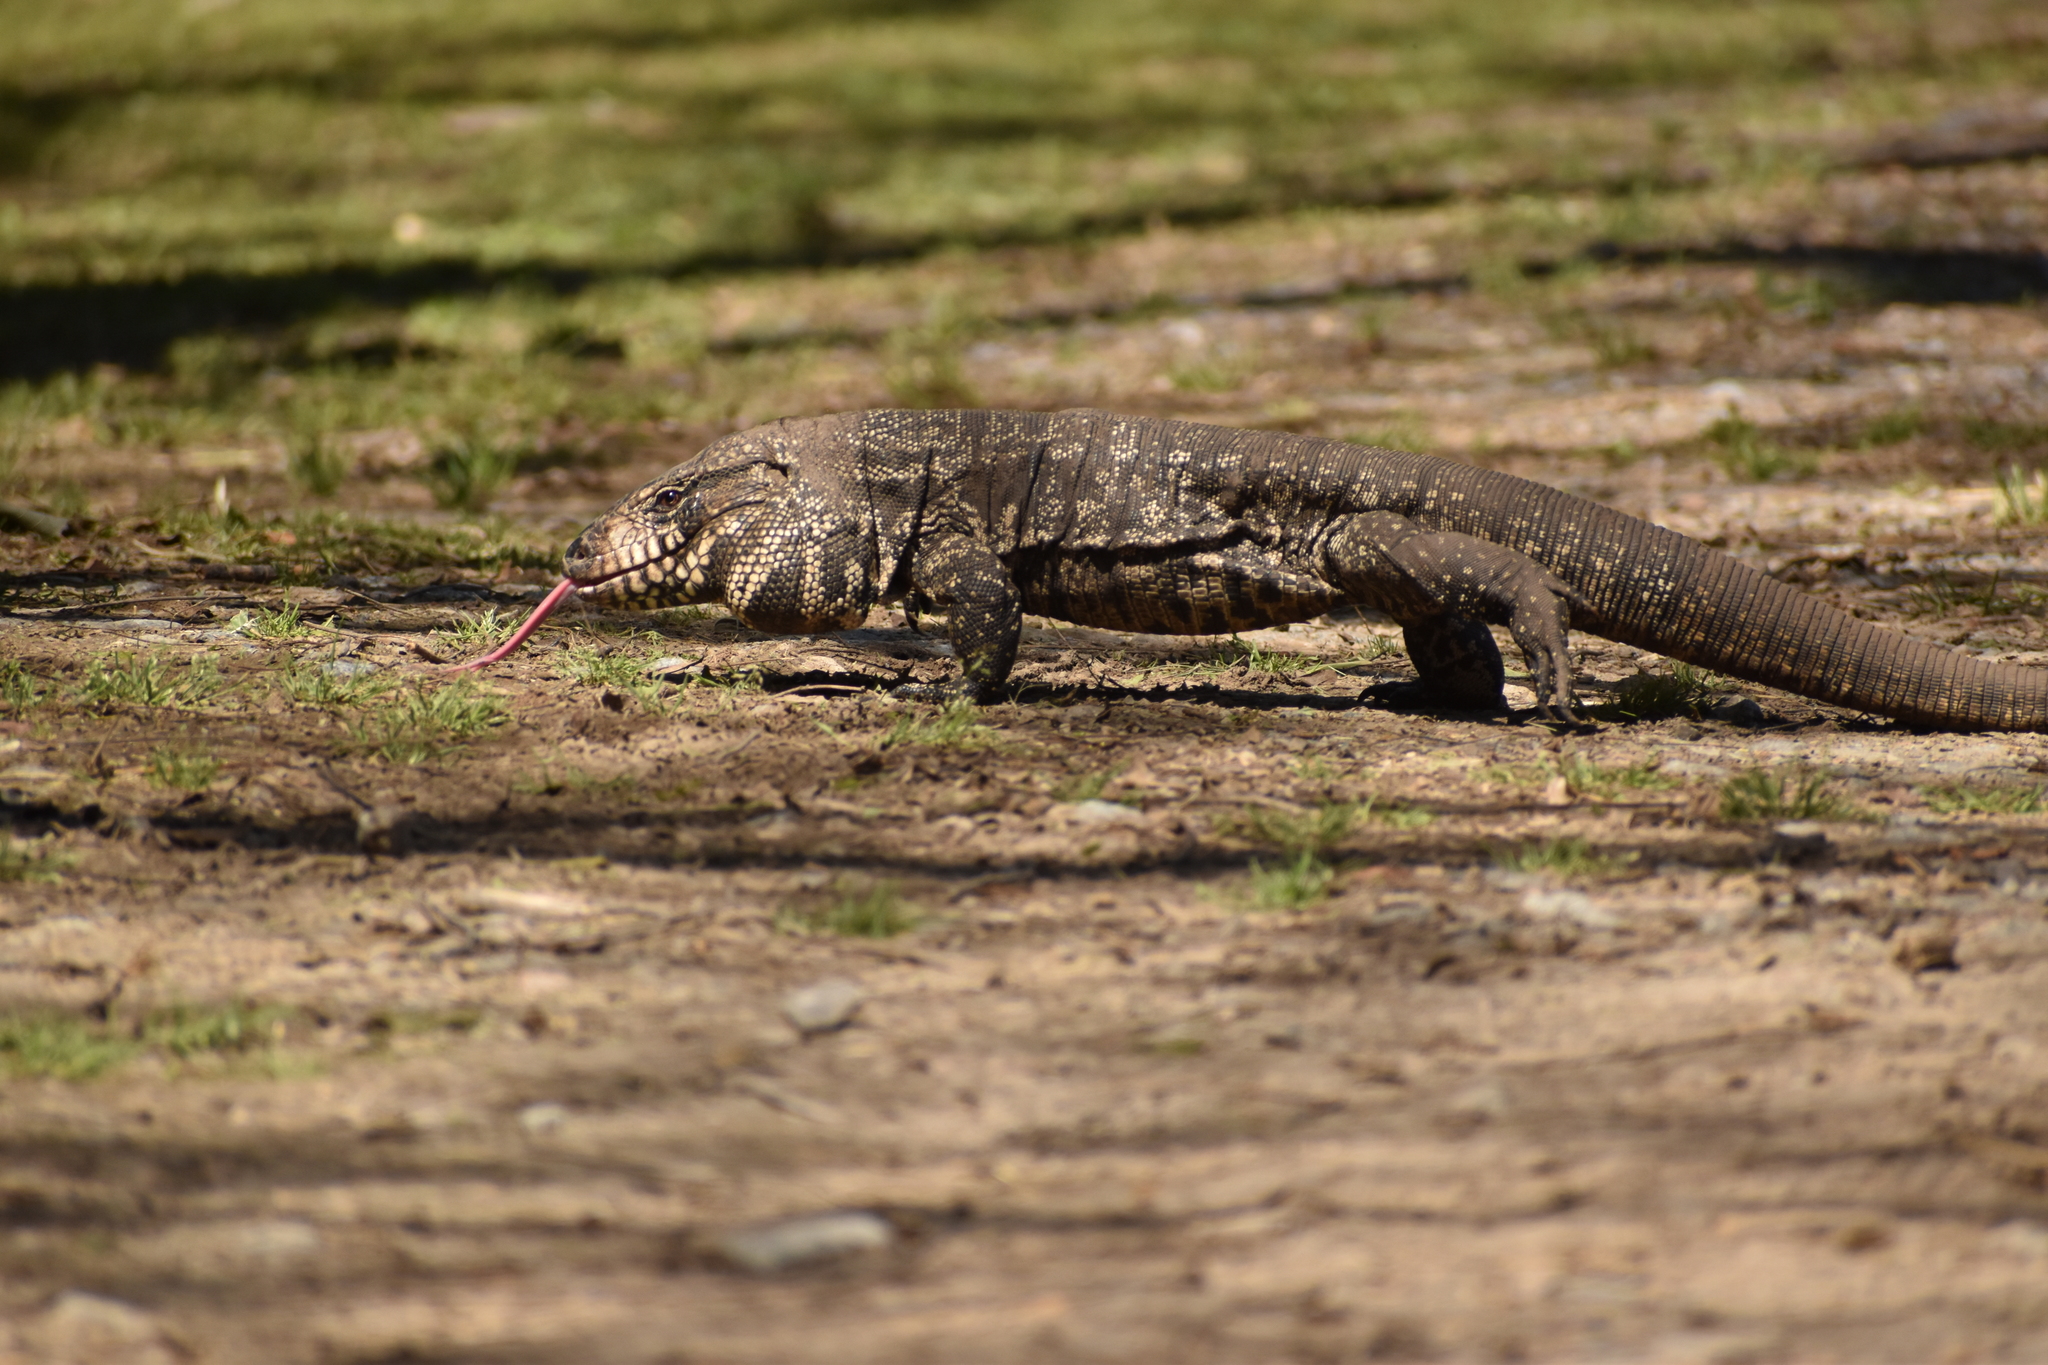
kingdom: Animalia
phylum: Chordata
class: Squamata
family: Teiidae
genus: Salvator
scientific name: Salvator merianae
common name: Argentine black and white tegu
